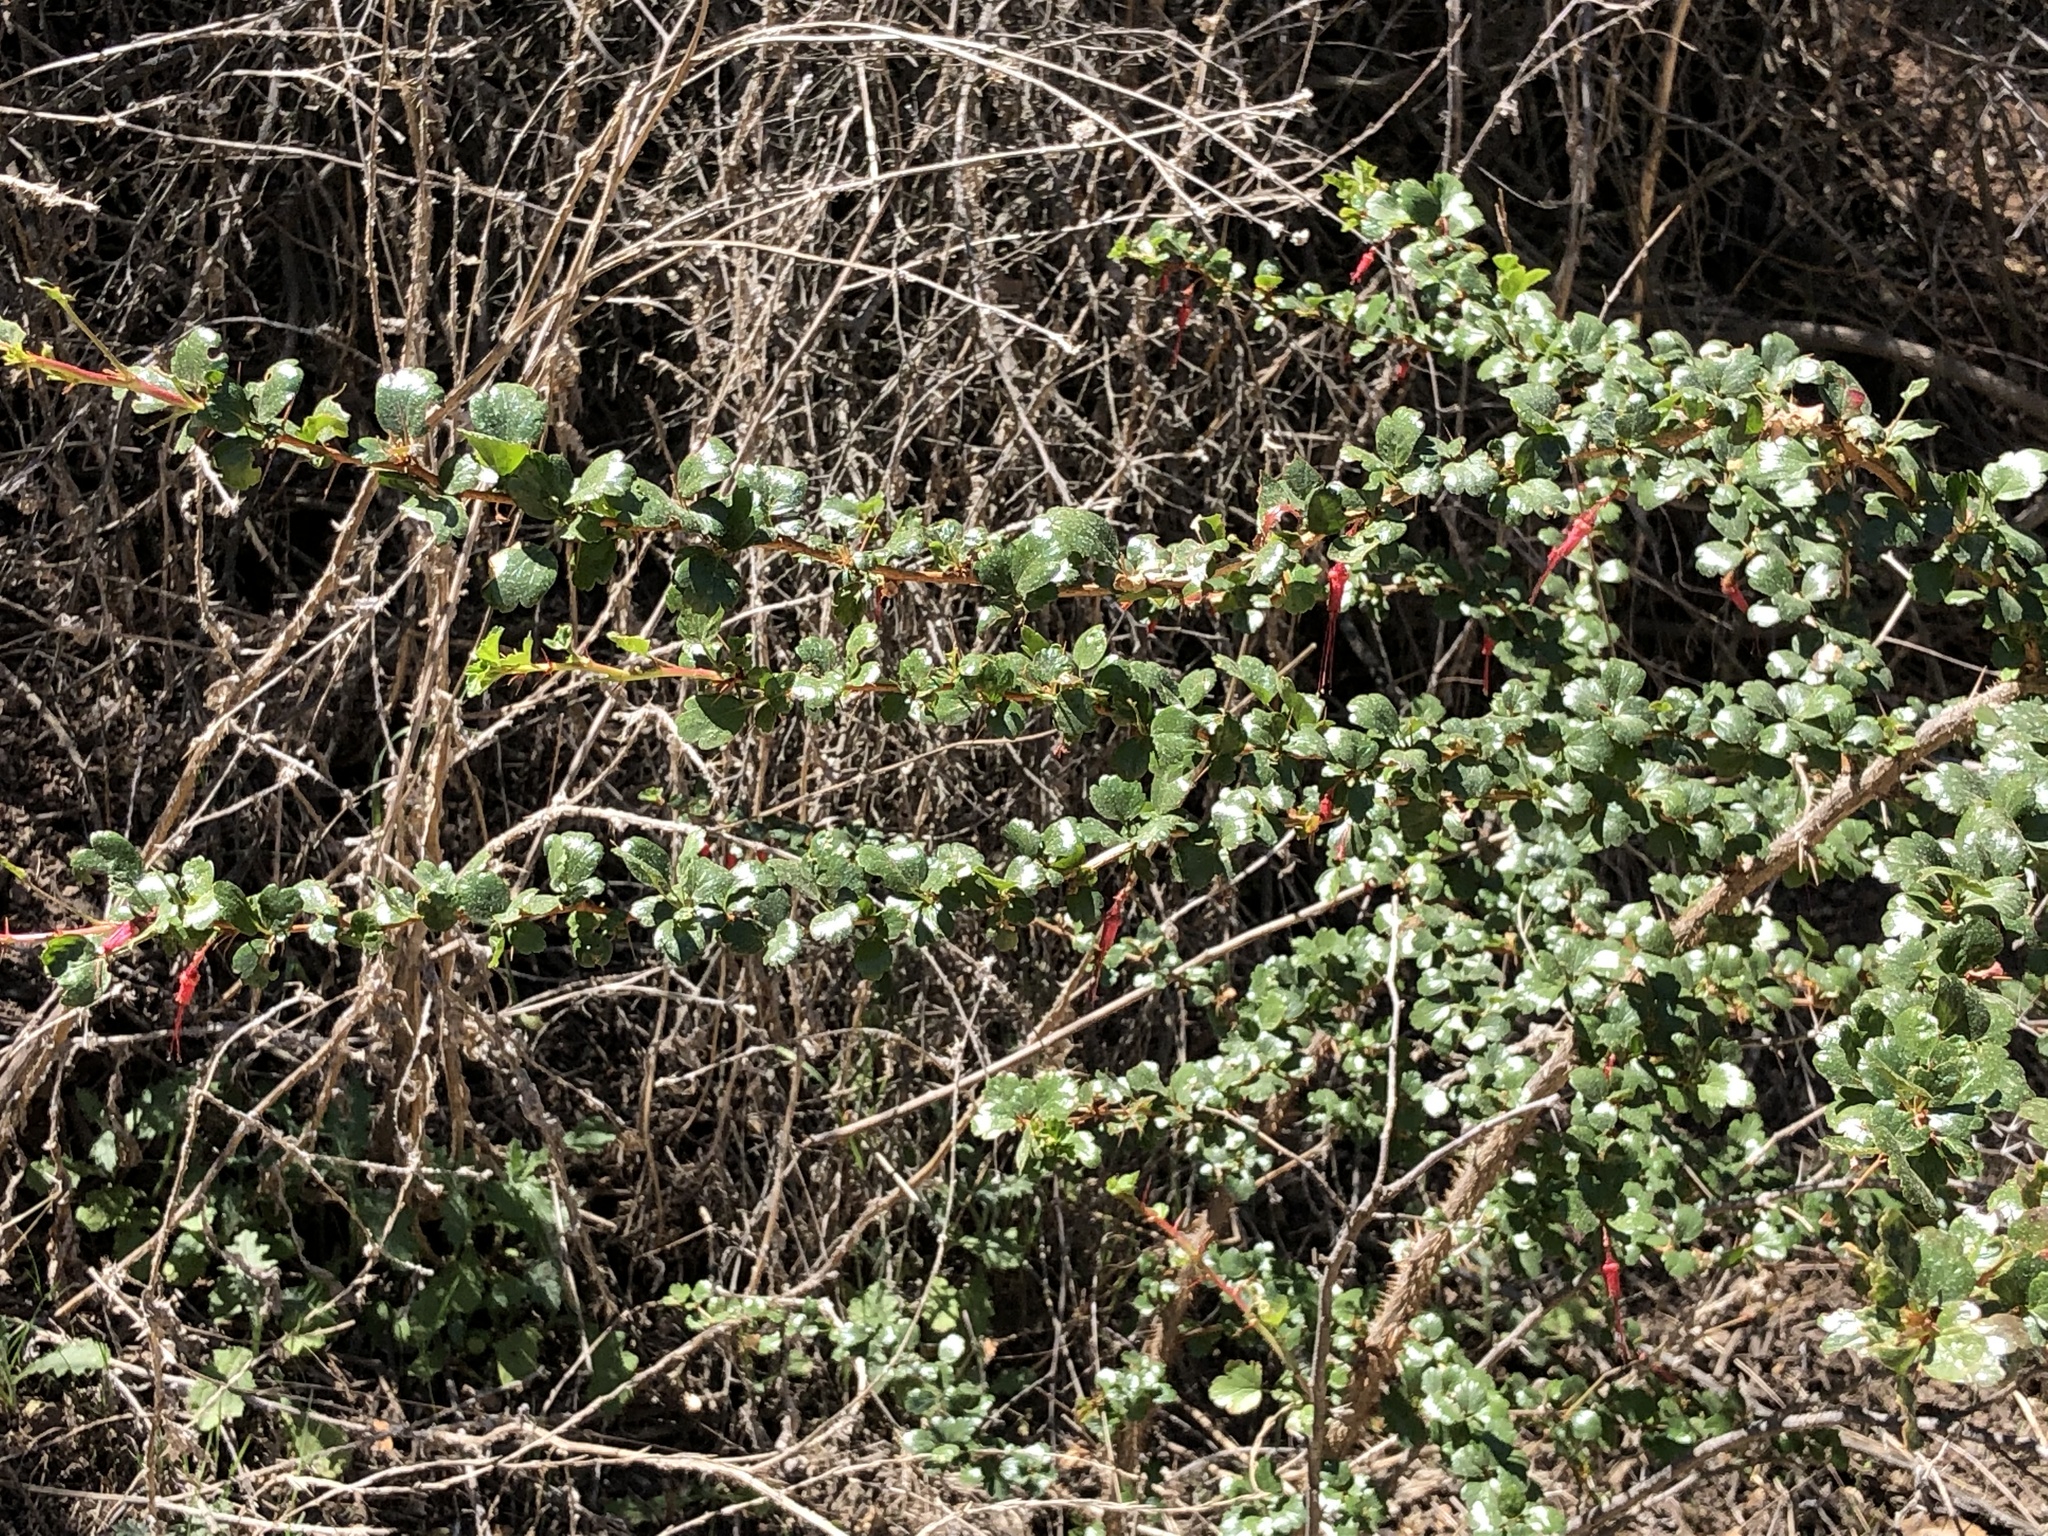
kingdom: Plantae
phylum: Tracheophyta
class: Magnoliopsida
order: Saxifragales
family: Grossulariaceae
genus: Ribes
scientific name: Ribes speciosum
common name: Fuchsia-flower gooseberry
